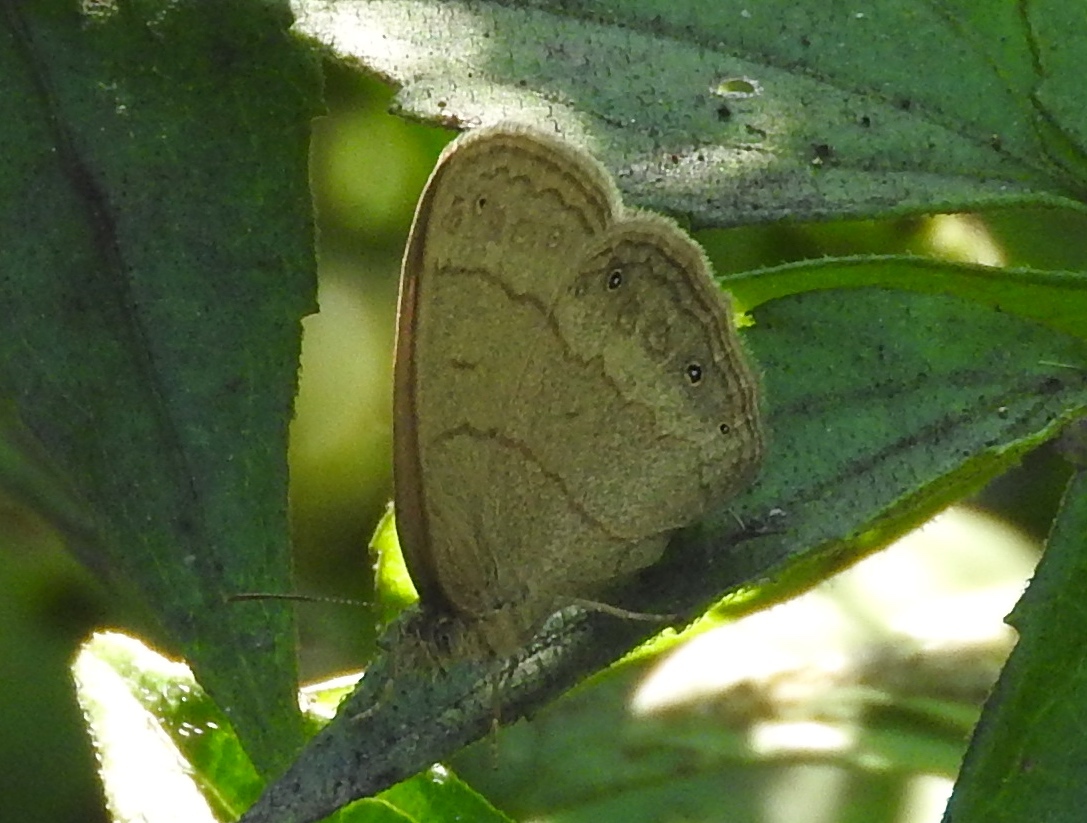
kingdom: Animalia
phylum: Arthropoda
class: Insecta
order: Lepidoptera
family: Nymphalidae
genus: Hermeuptychia
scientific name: Hermeuptychia hermes
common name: Hermes satyr
